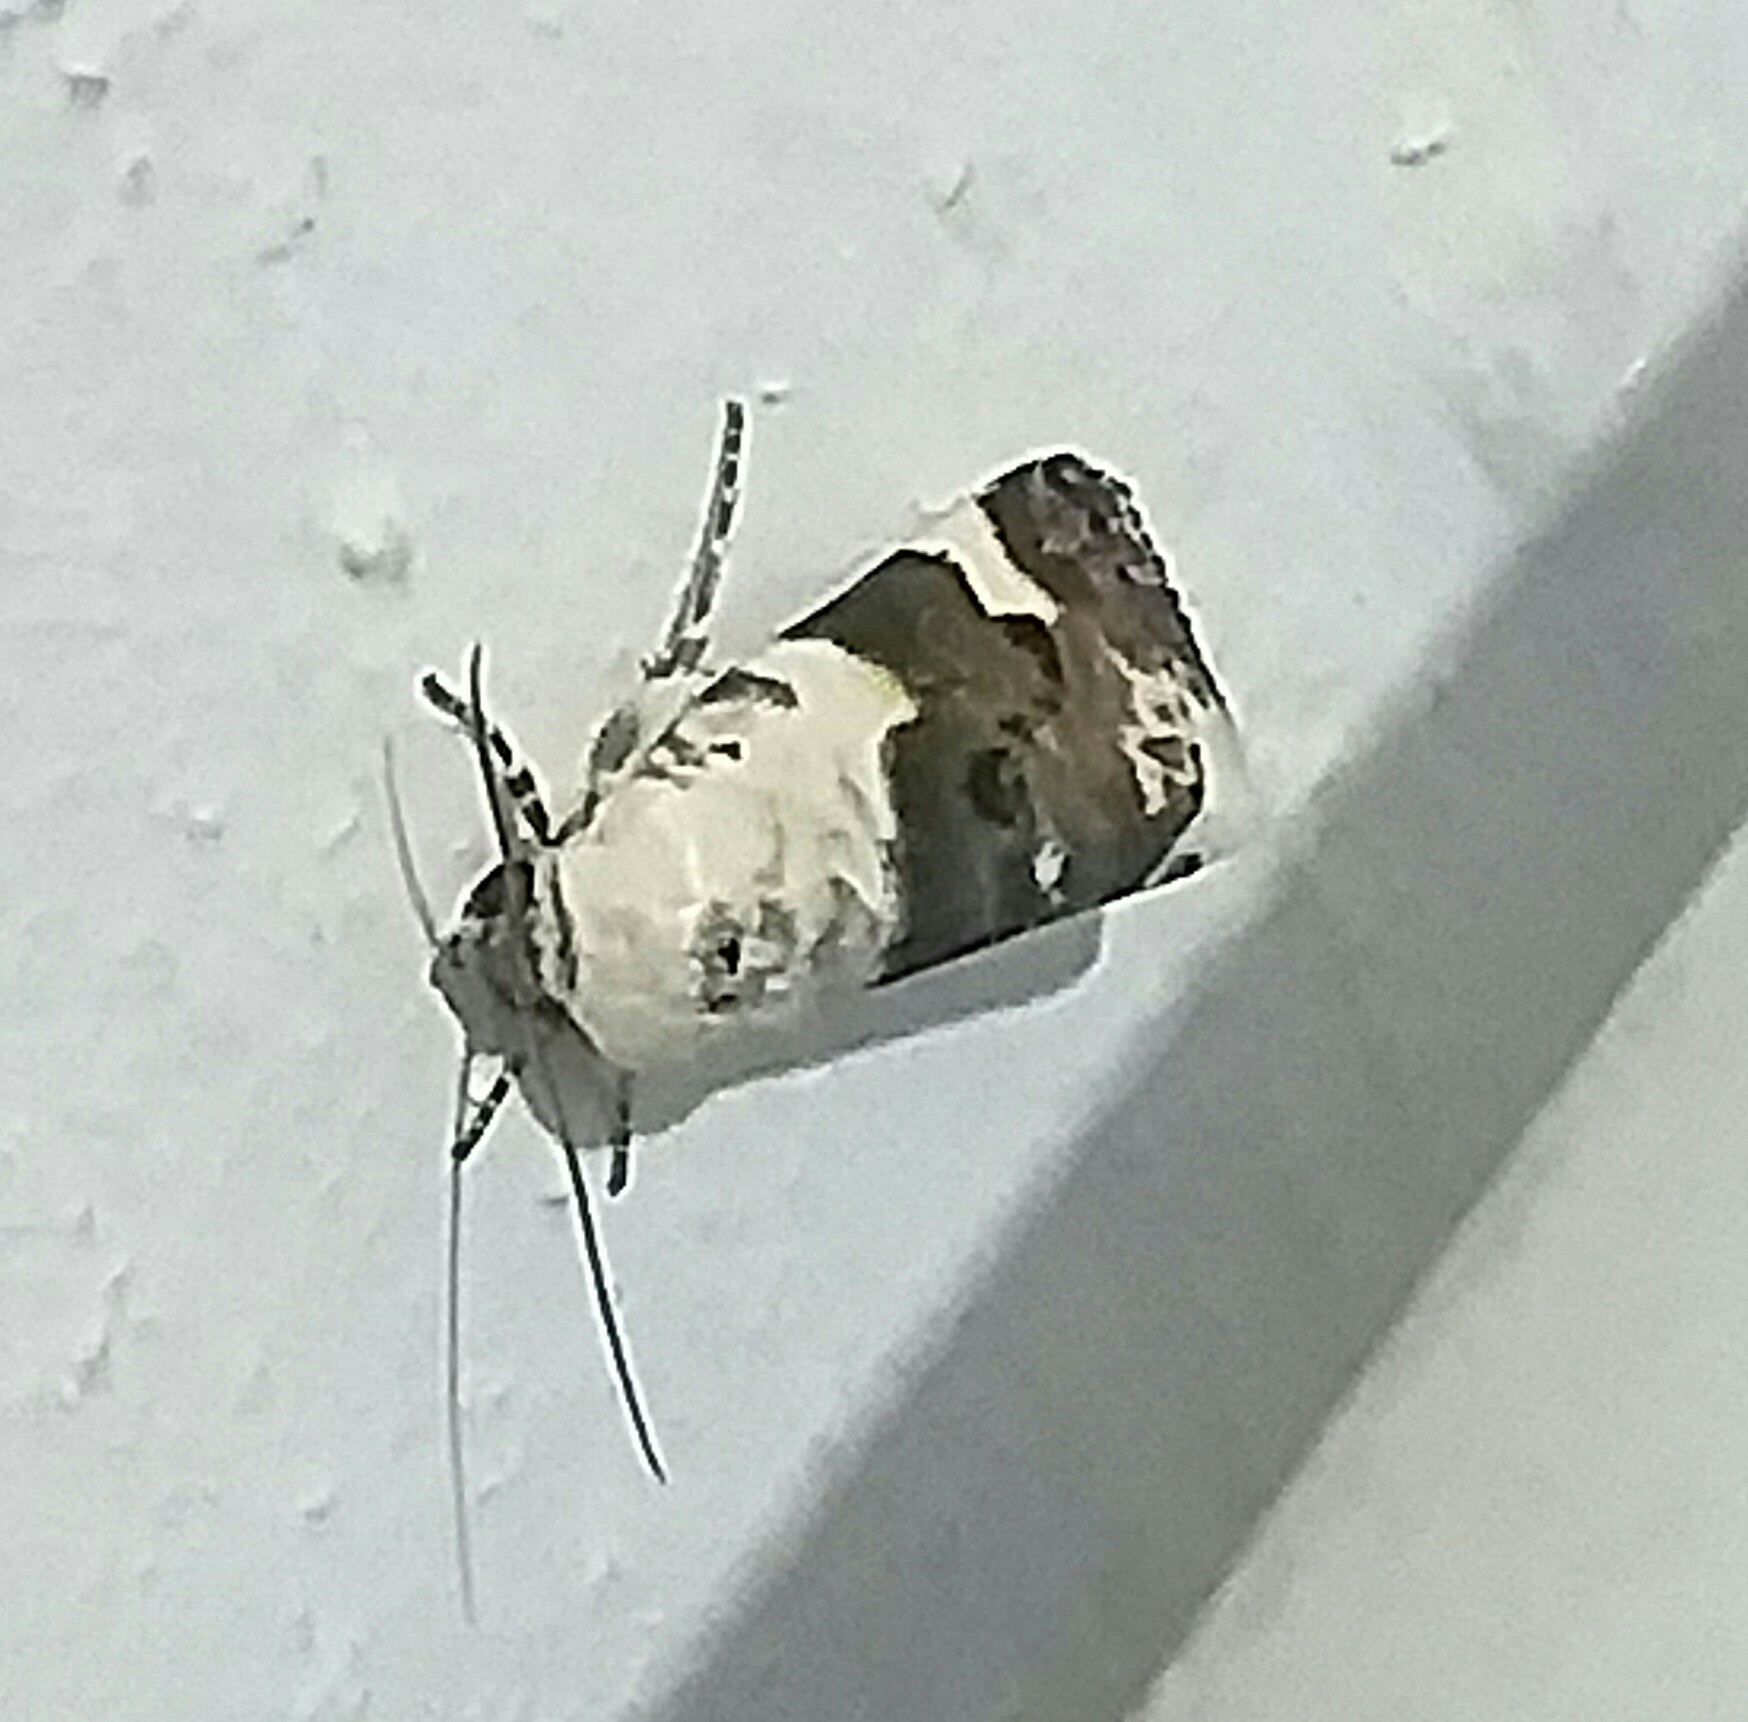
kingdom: Animalia
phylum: Arthropoda
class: Insecta
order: Lepidoptera
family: Noctuidae
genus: Acontia
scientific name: Acontia lucida
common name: Pale shoulder
